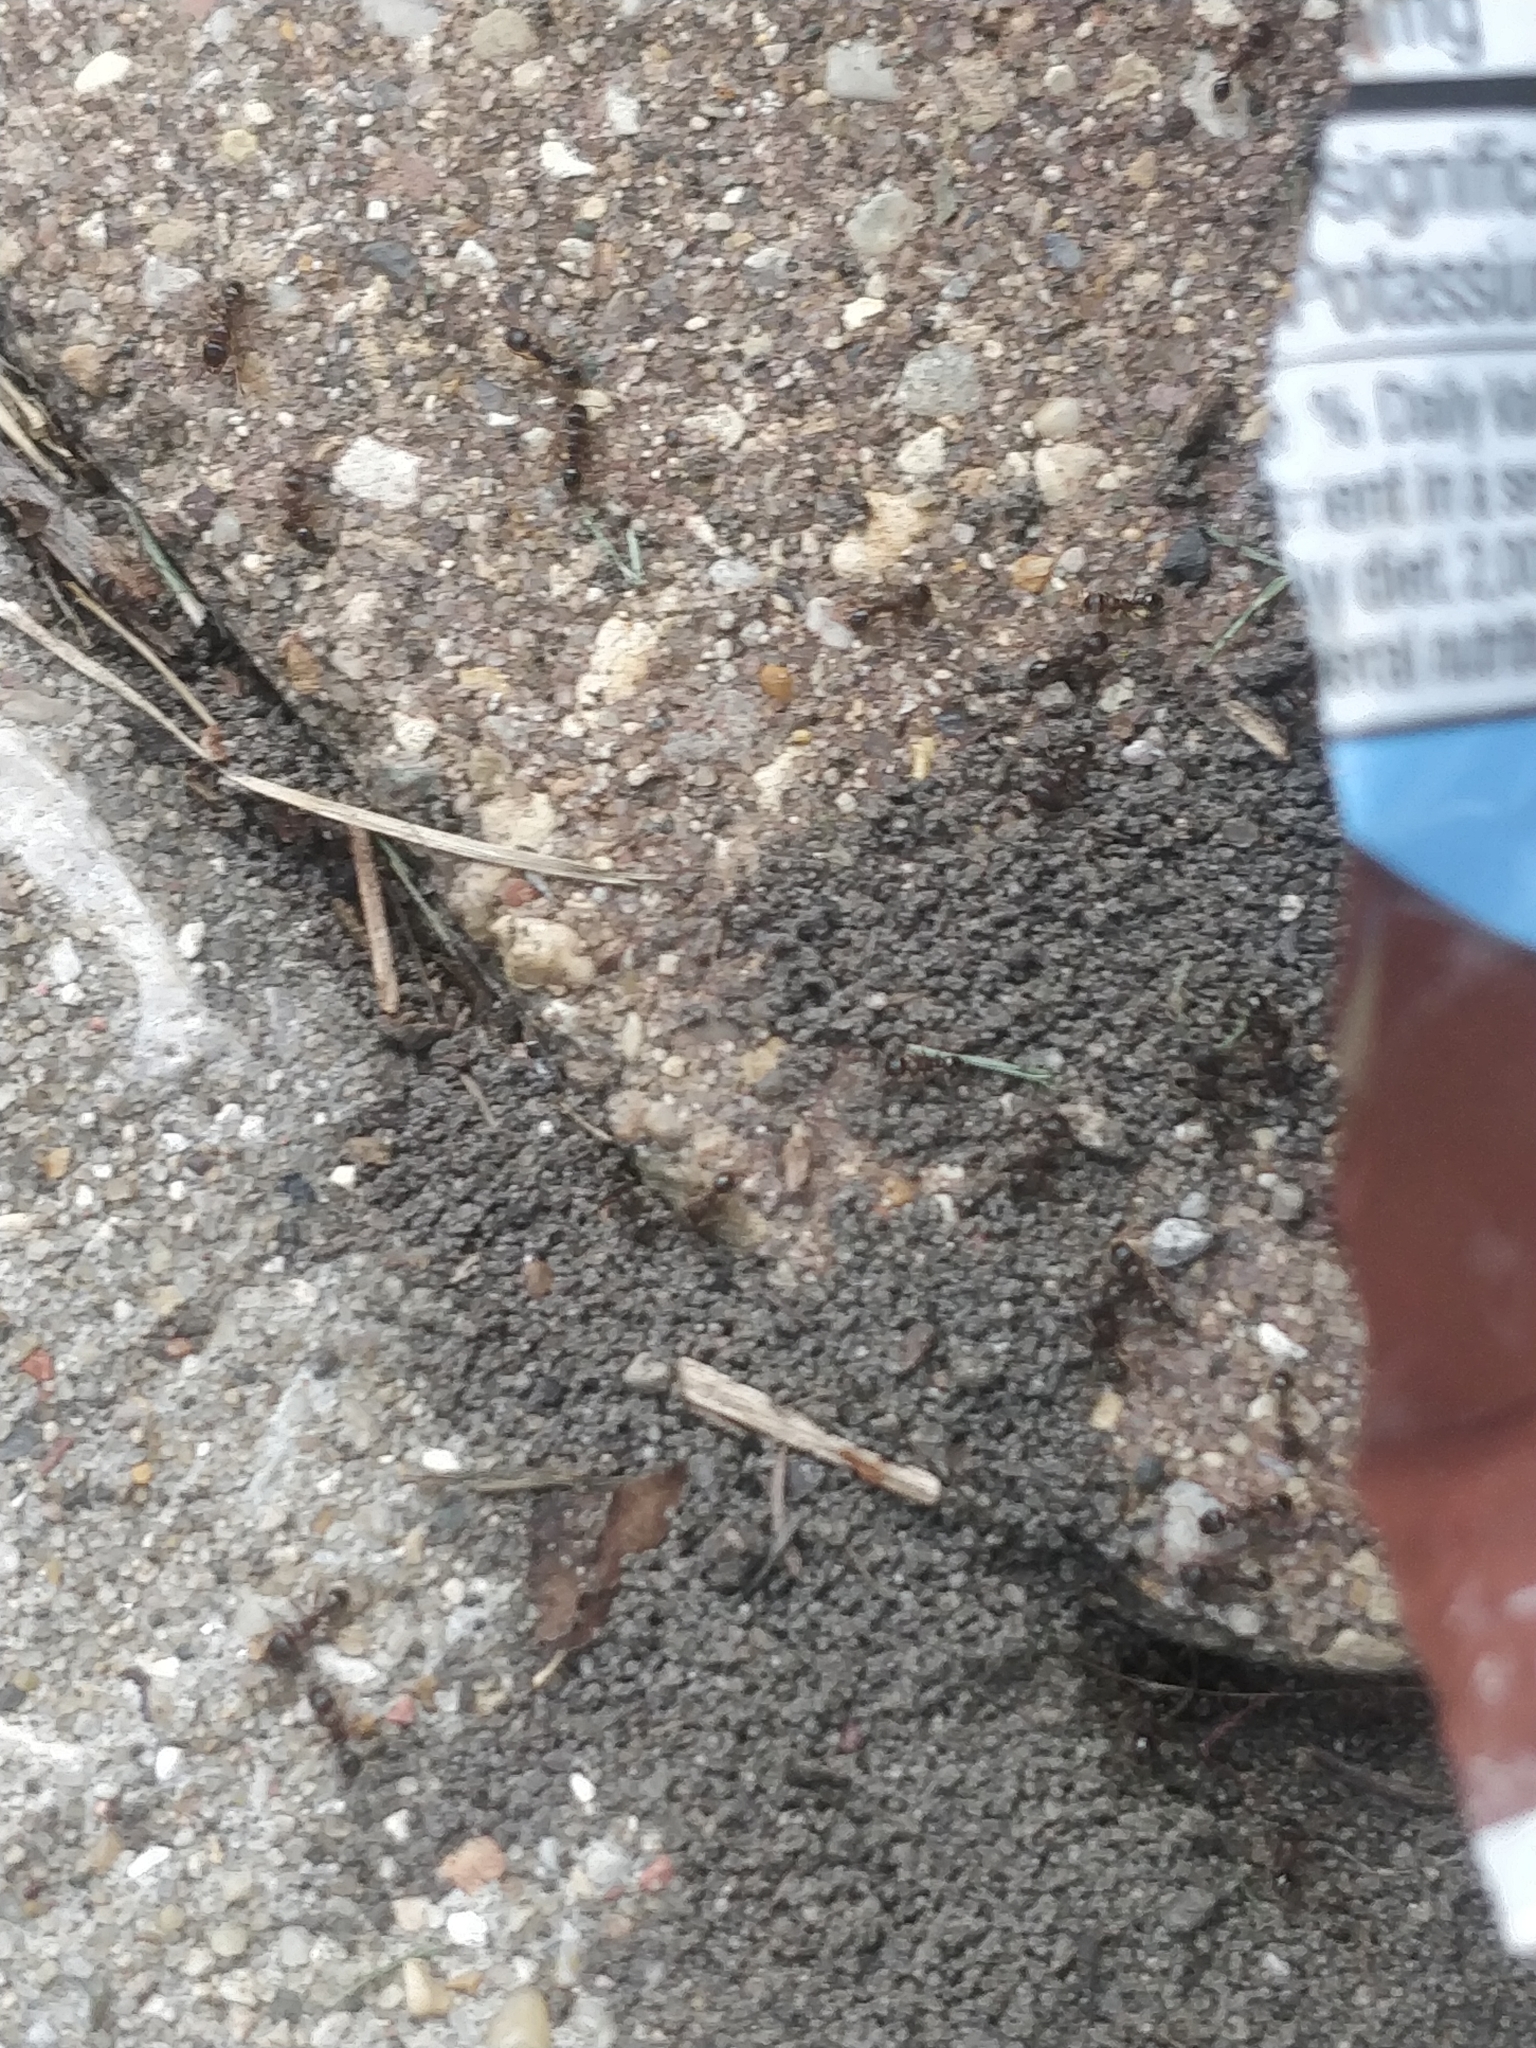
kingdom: Animalia
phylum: Arthropoda
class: Insecta
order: Hymenoptera
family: Formicidae
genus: Tetramorium
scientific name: Tetramorium immigrans
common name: Pavement ant
